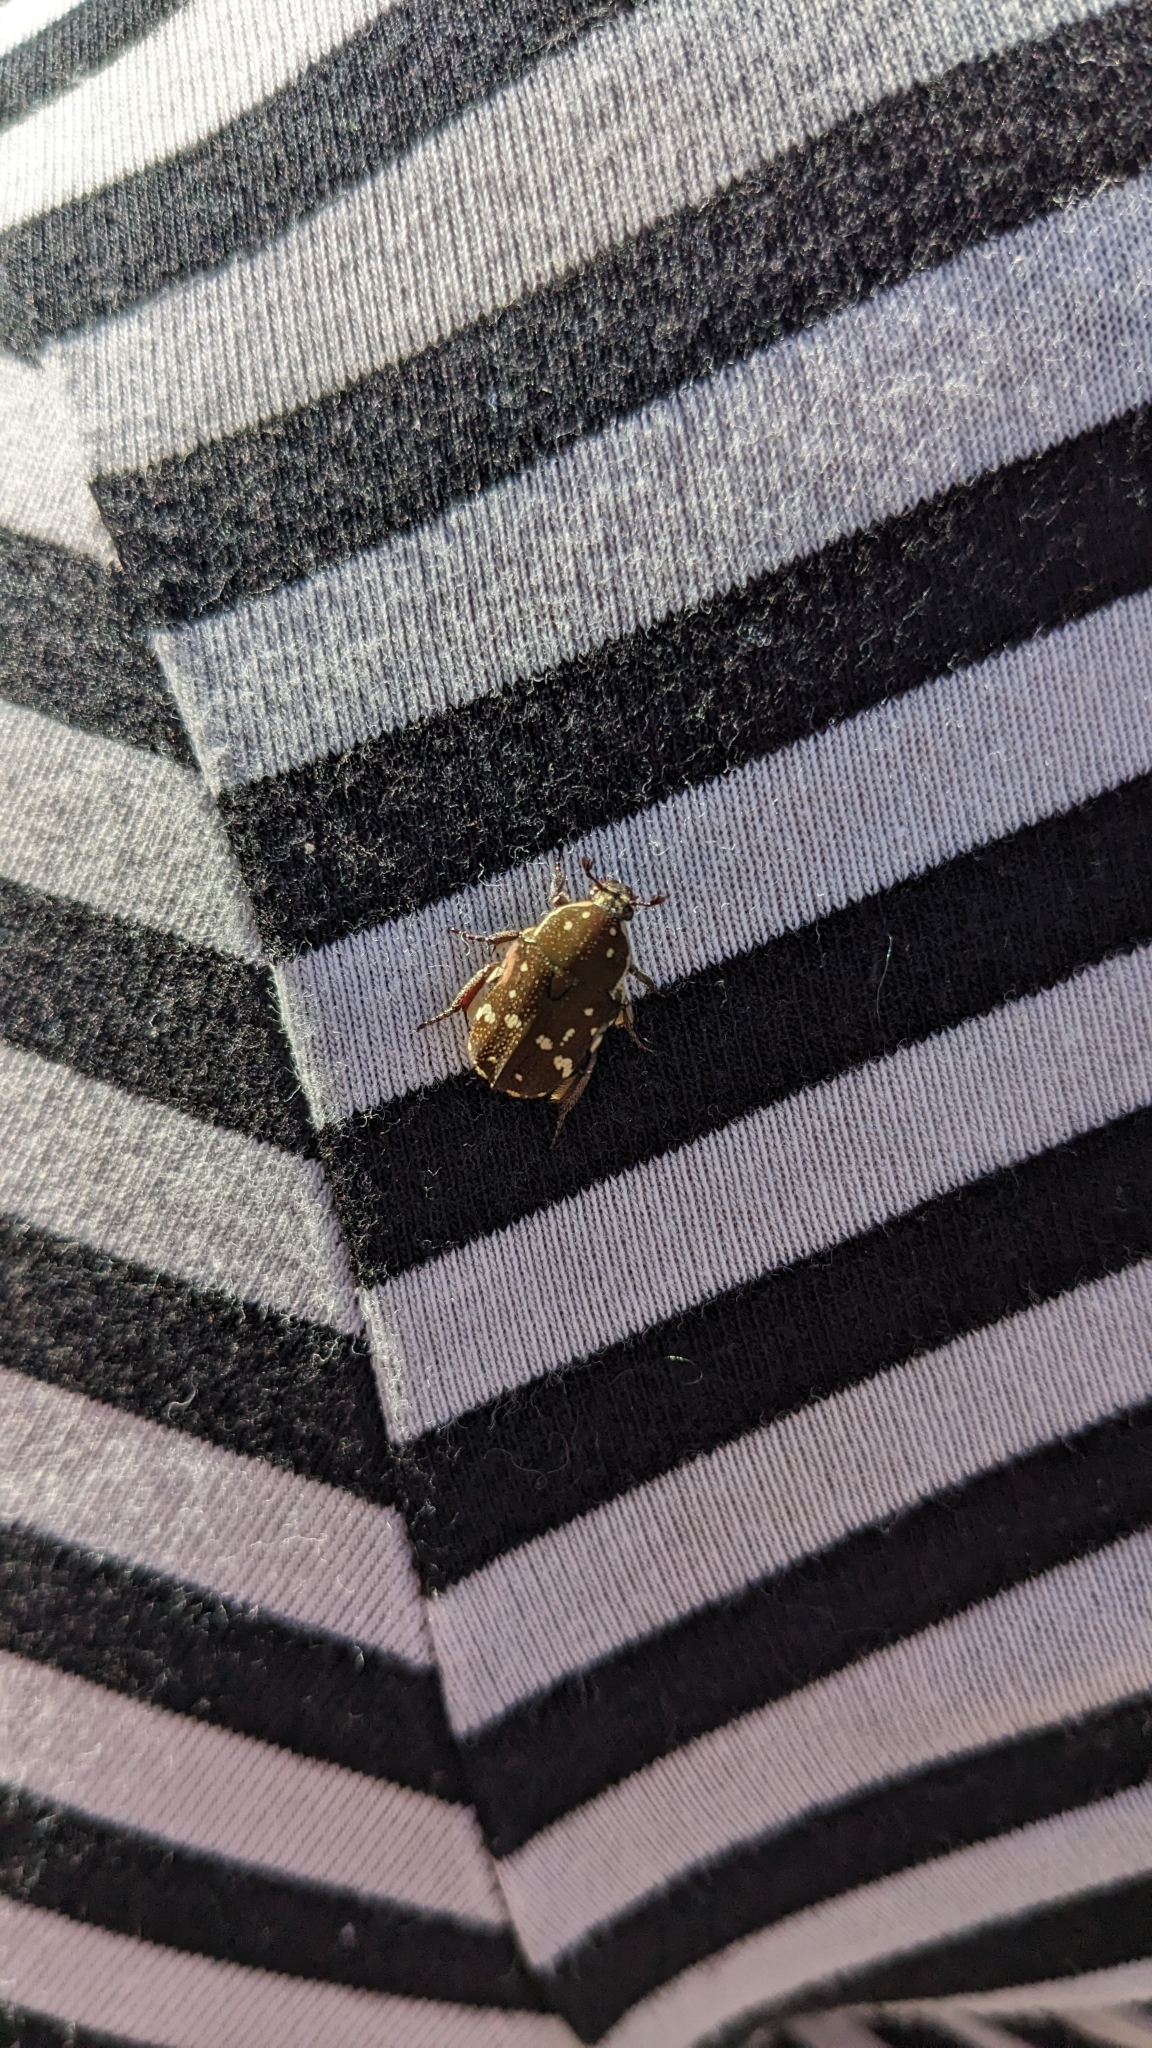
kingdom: Animalia
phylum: Arthropoda
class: Insecta
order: Coleoptera
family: Scarabaeidae
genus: Glycyphana
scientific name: Glycyphana stolata
